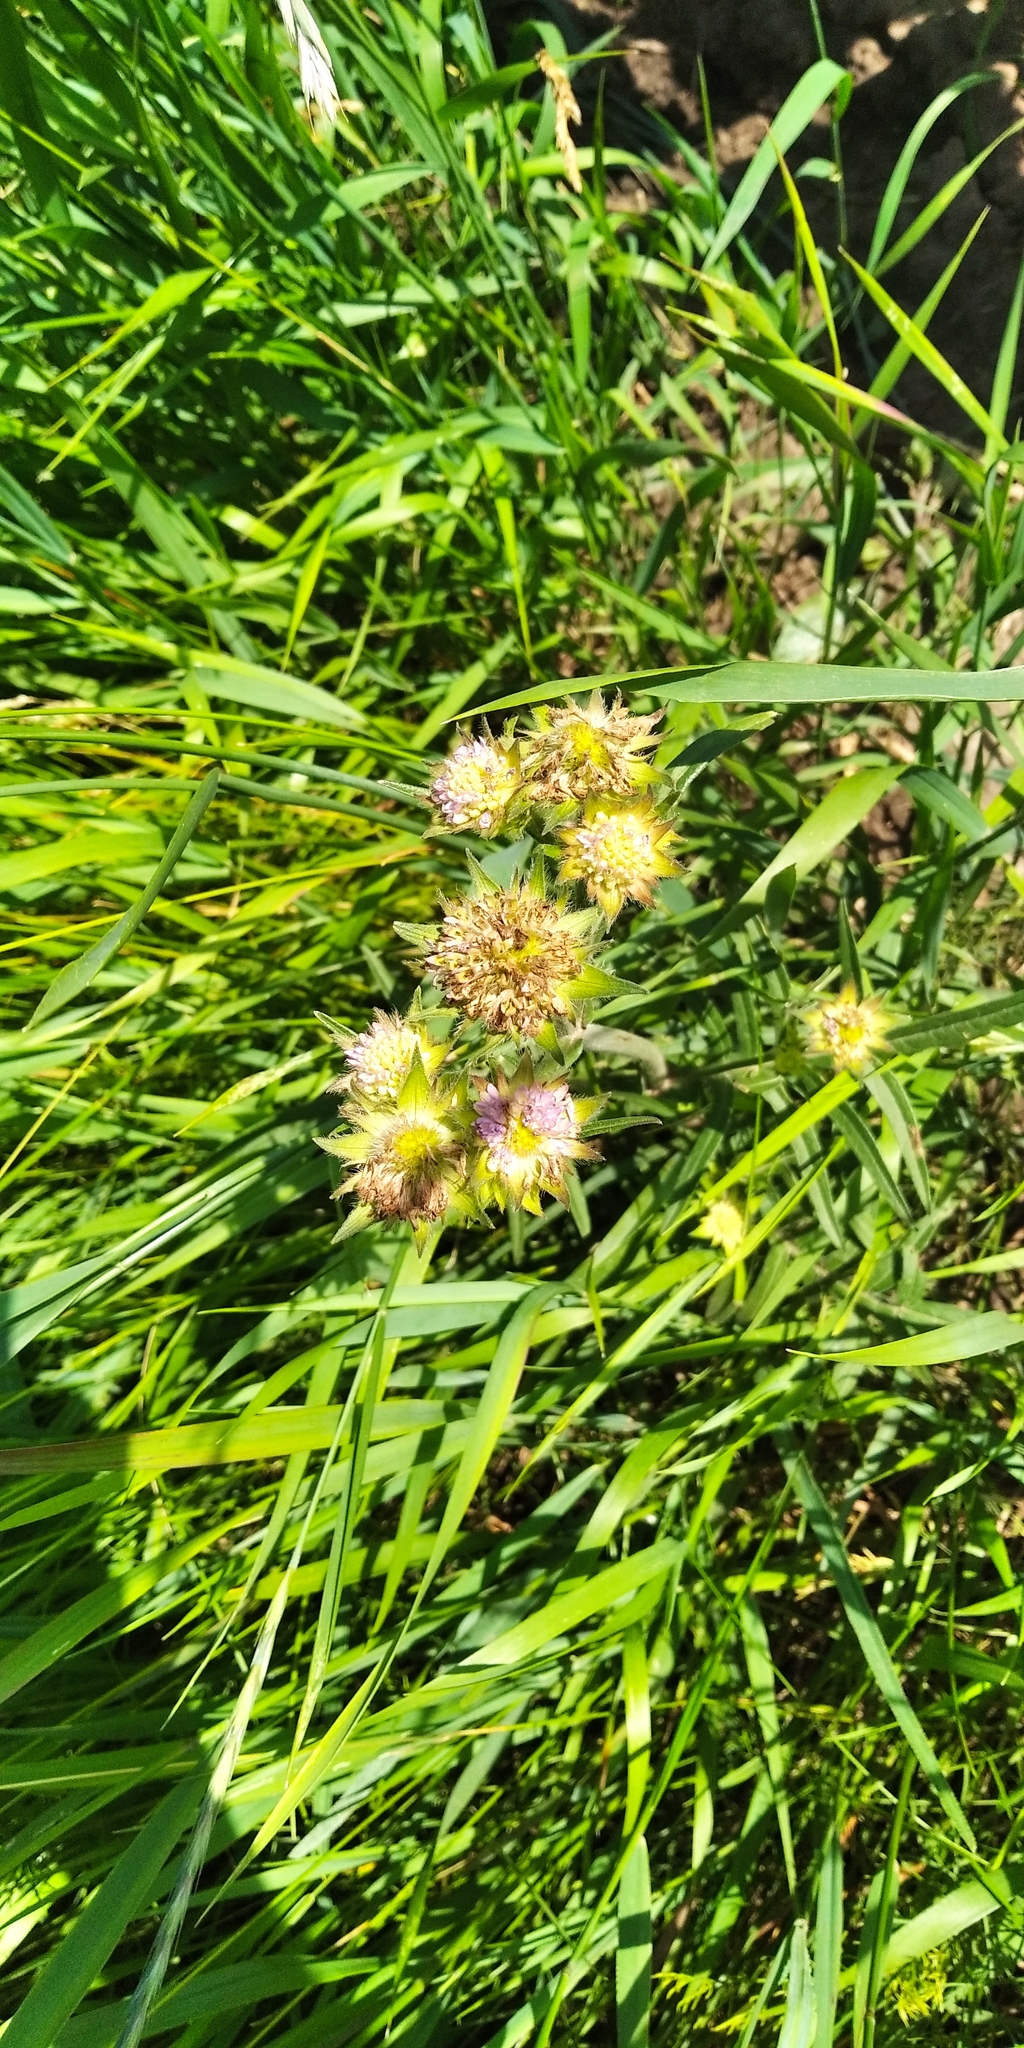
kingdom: Plantae
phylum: Tracheophyta
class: Magnoliopsida
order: Dipsacales
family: Caprifoliaceae
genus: Knautia
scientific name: Knautia arvensis
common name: Field scabiosa
